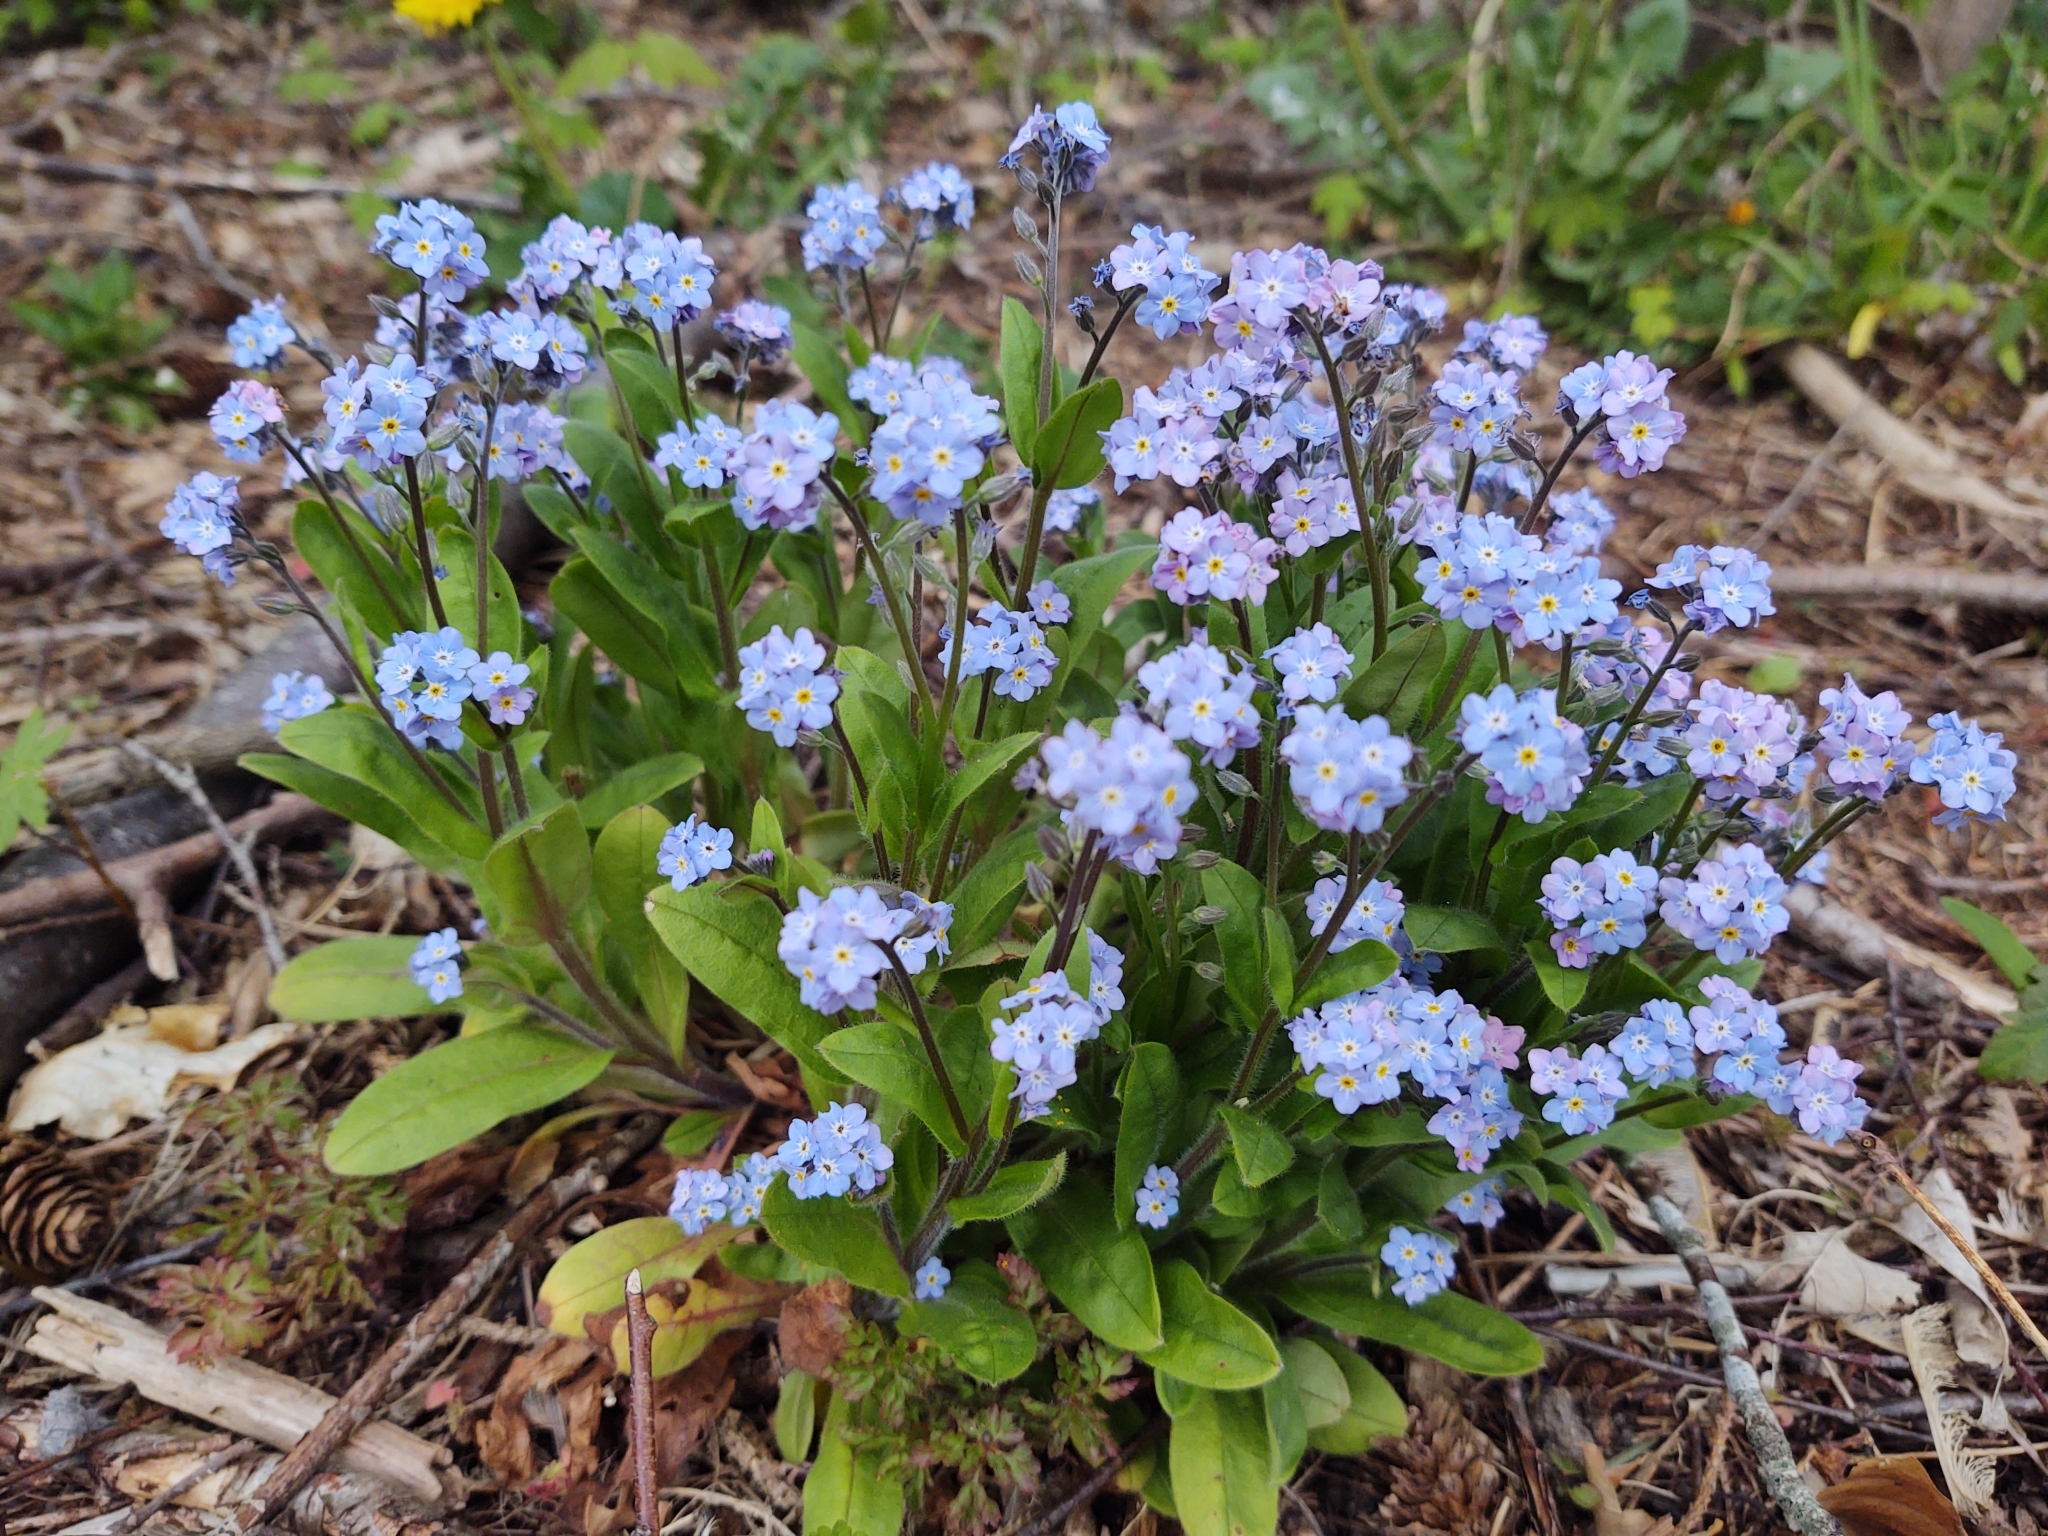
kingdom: Plantae
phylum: Tracheophyta
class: Magnoliopsida
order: Boraginales
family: Boraginaceae
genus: Myosotis
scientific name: Myosotis sylvatica
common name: Wood forget-me-not
